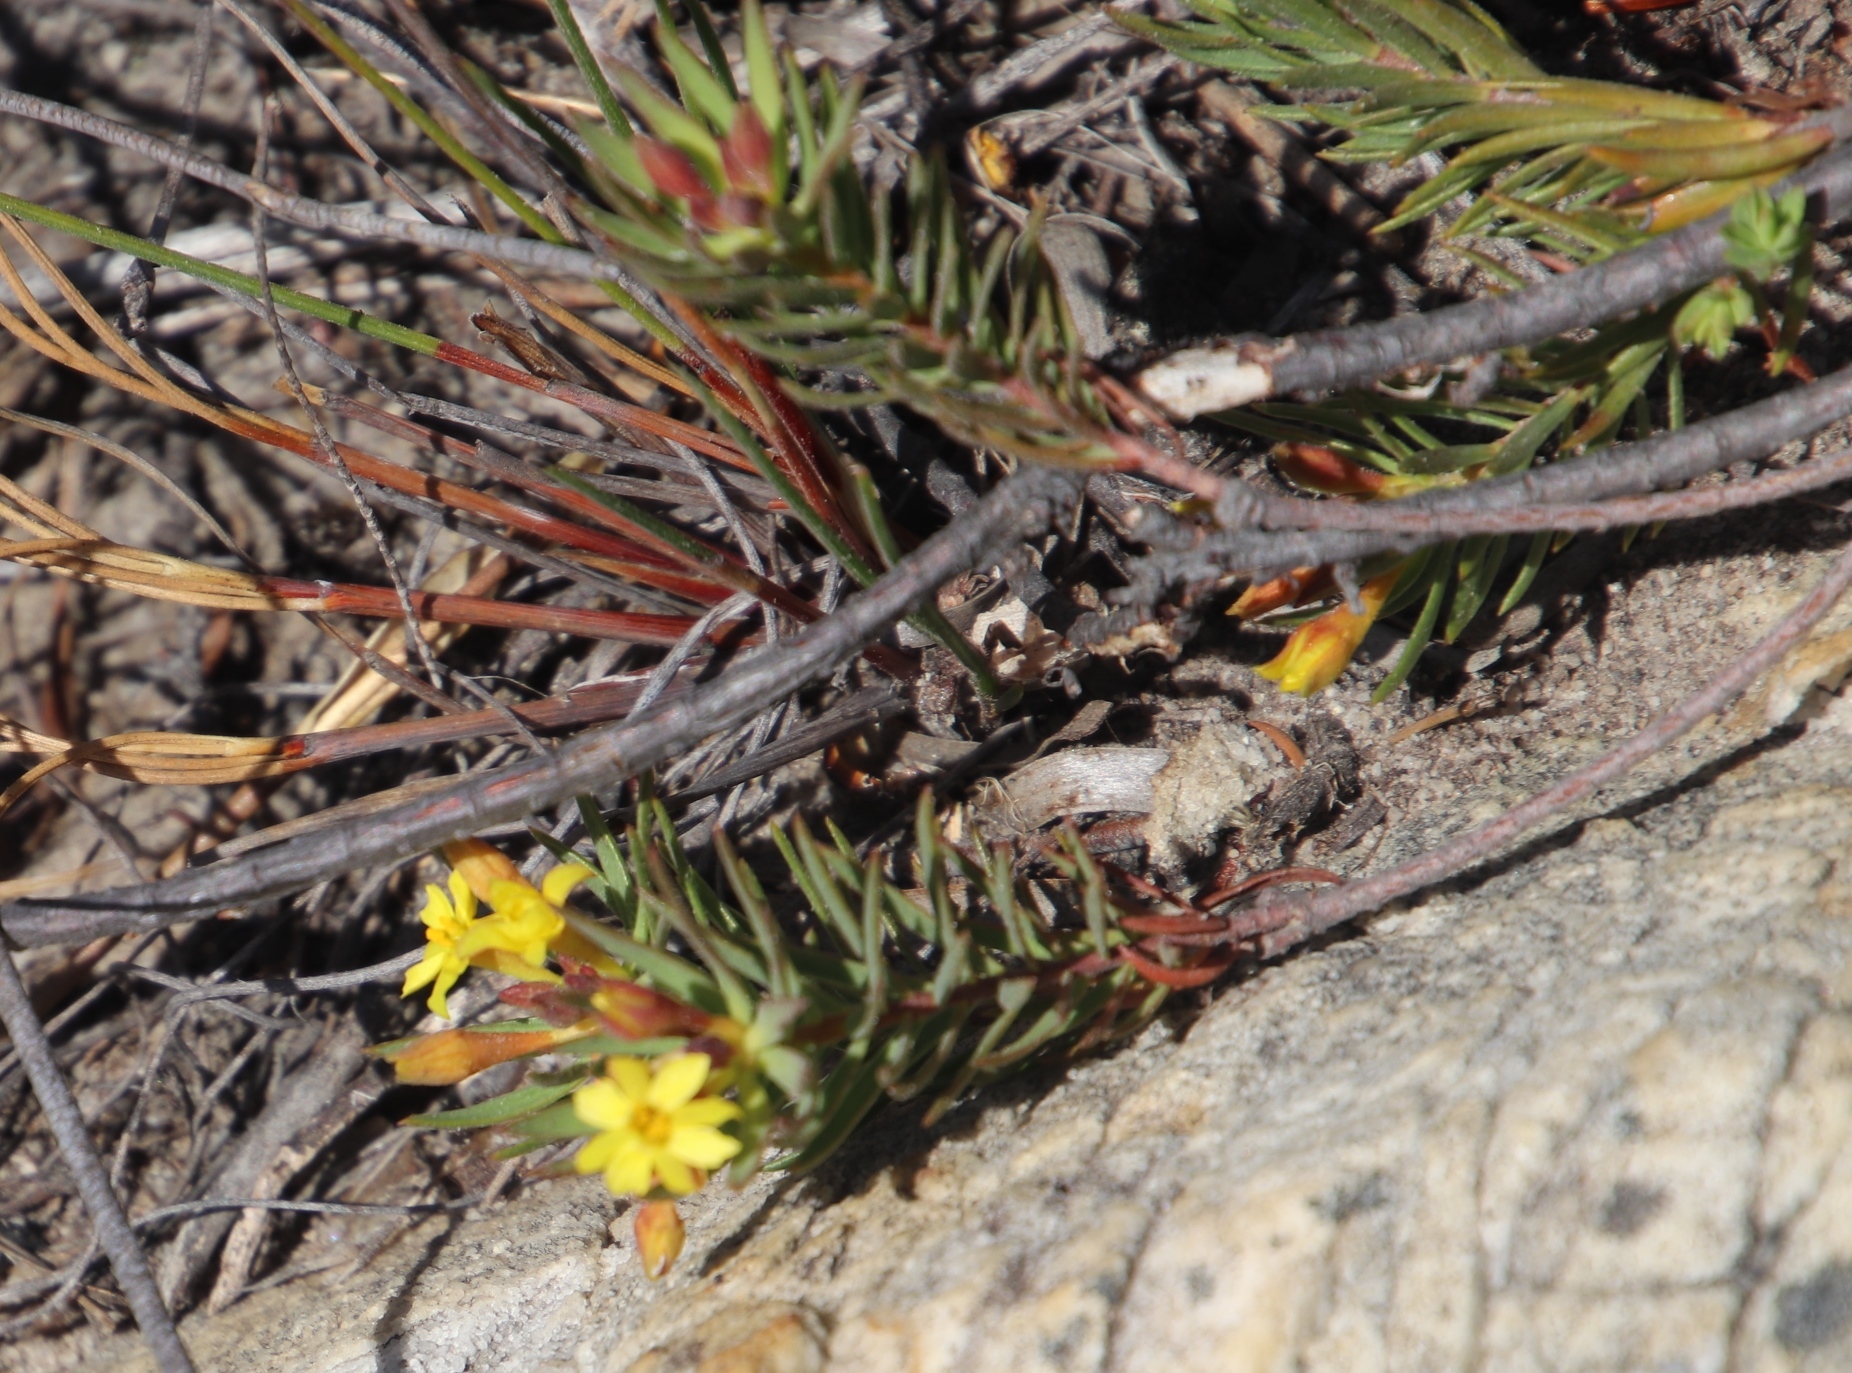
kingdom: Plantae
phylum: Tracheophyta
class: Magnoliopsida
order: Malvales
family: Thymelaeaceae
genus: Gnidia
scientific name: Gnidia juniperifolia
